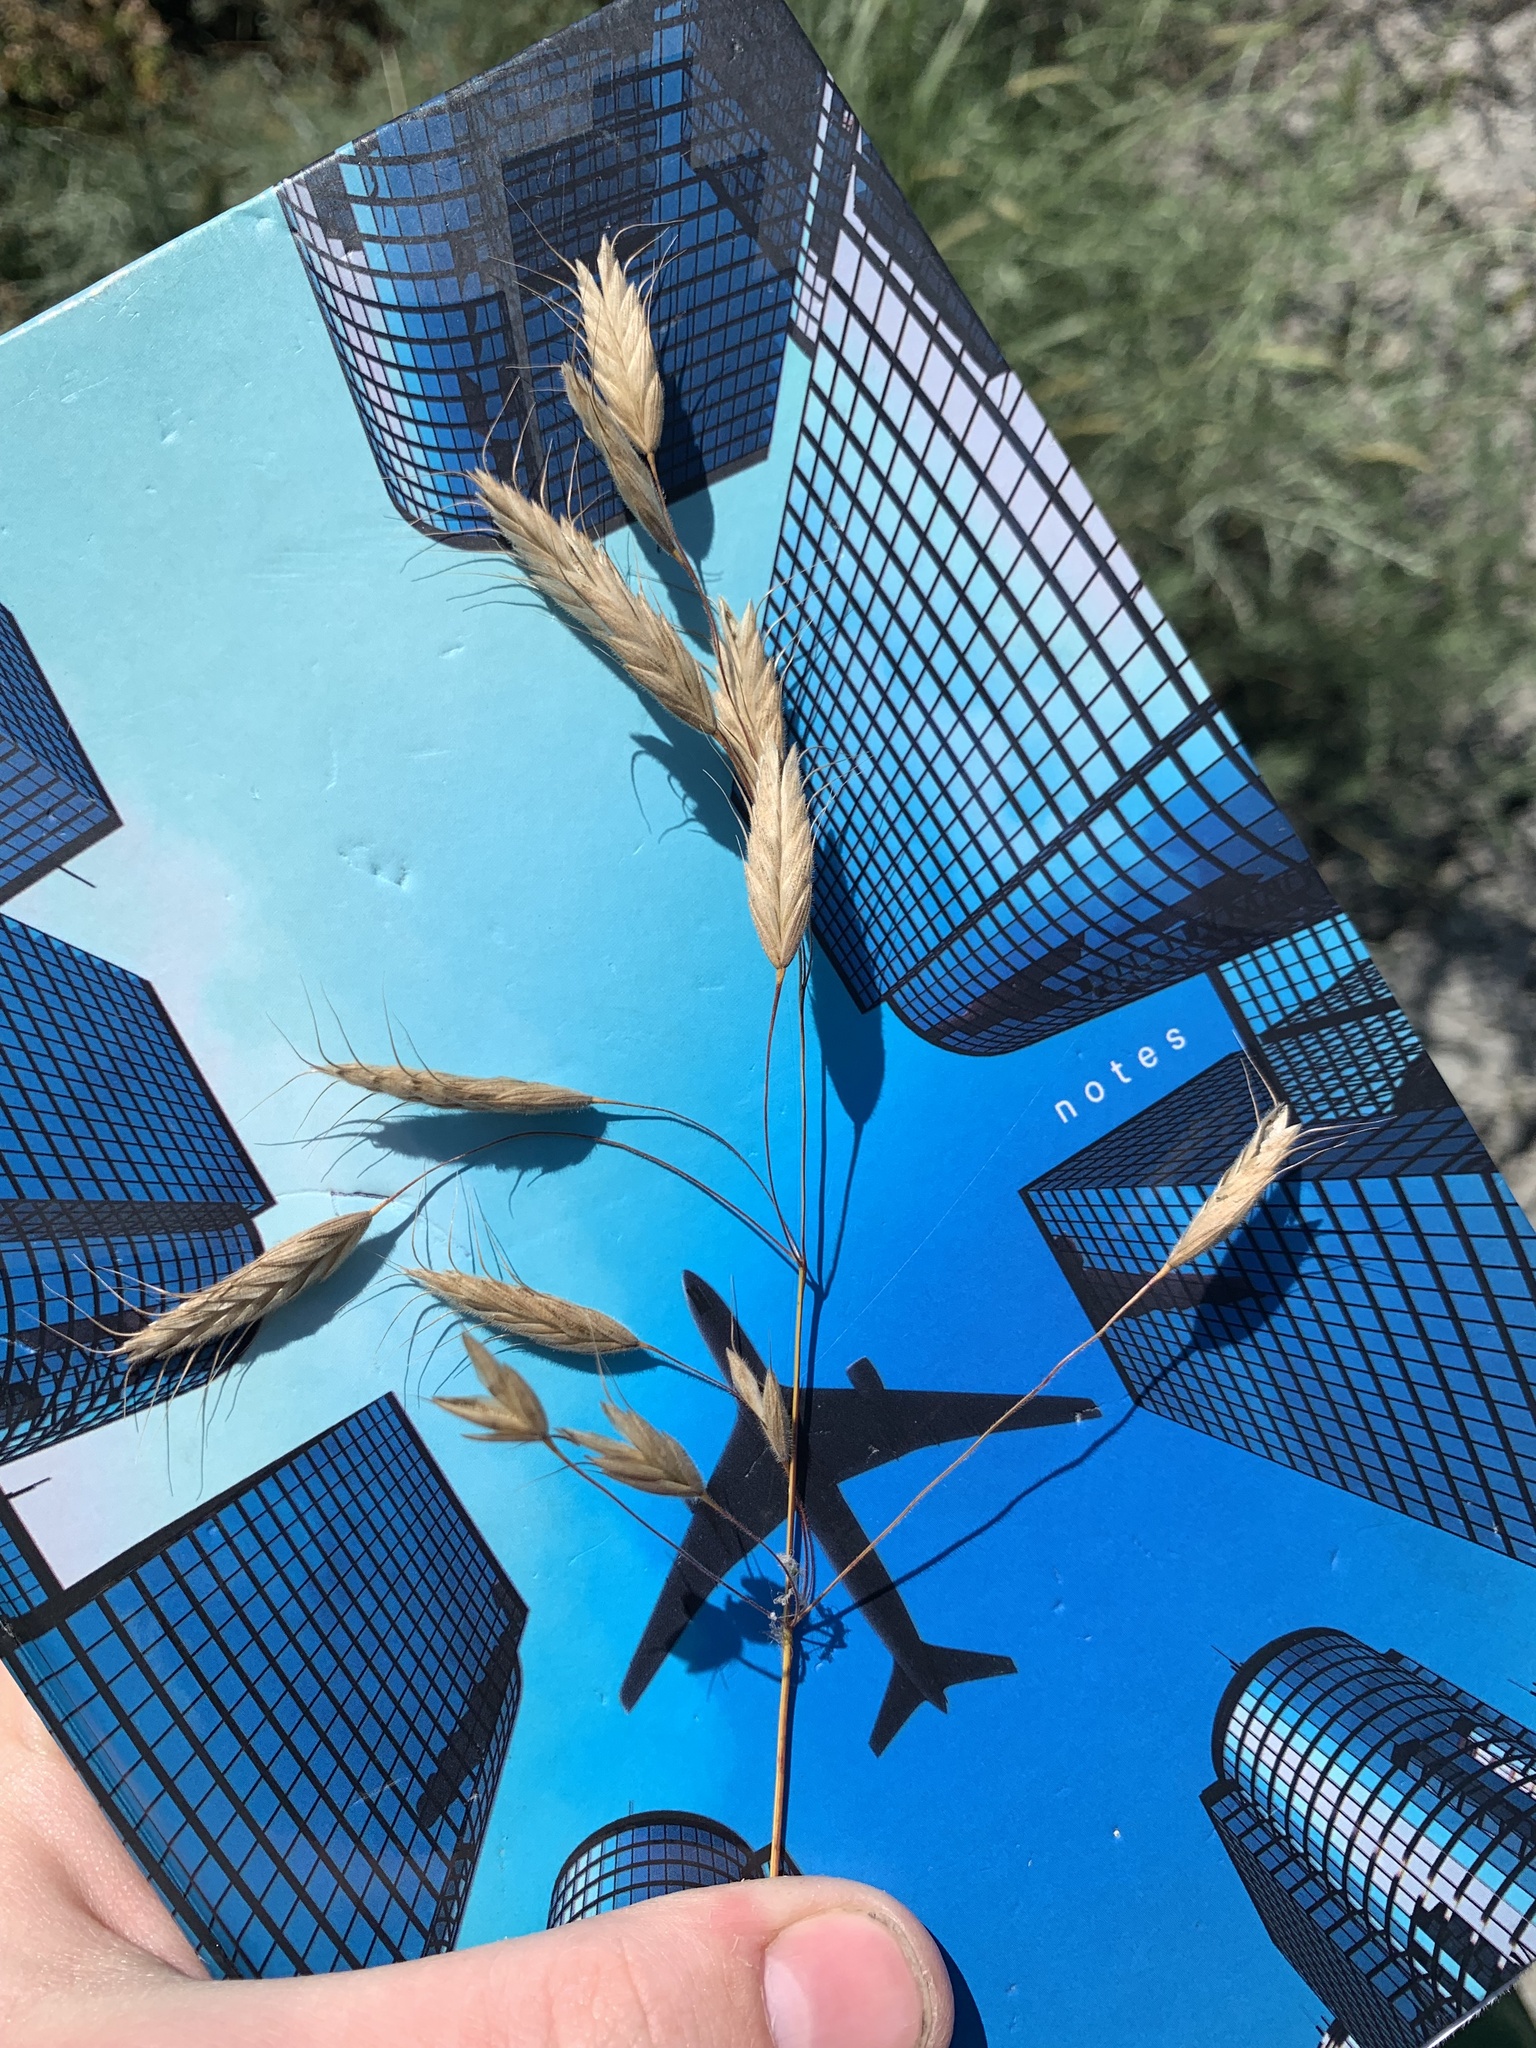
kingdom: Plantae
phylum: Tracheophyta
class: Liliopsida
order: Poales
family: Poaceae
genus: Bromus
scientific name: Bromus squarrosus
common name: Corn brome
